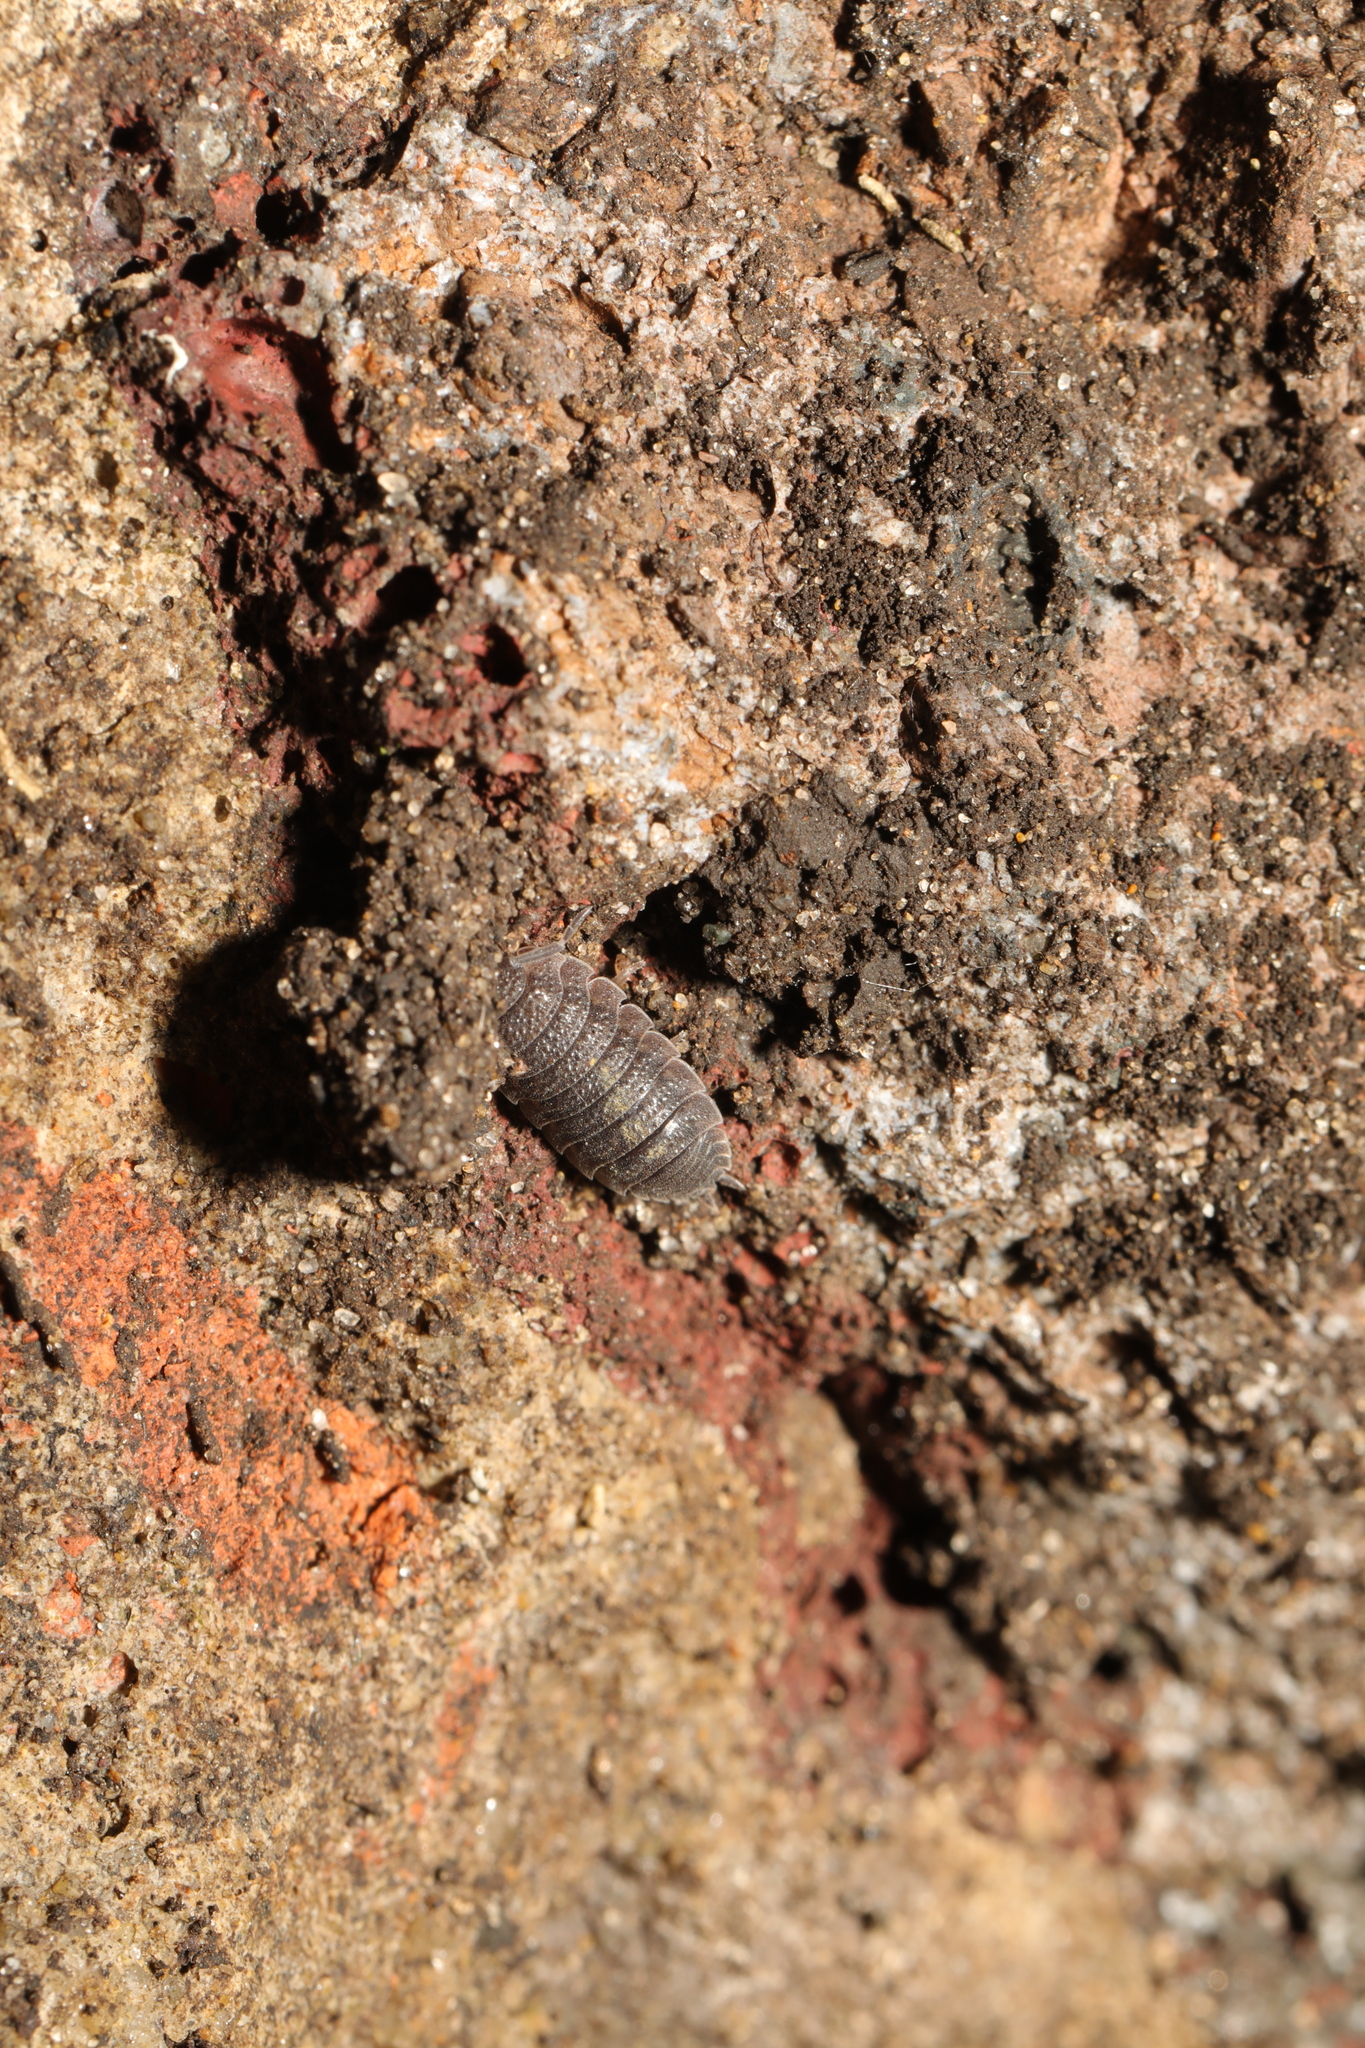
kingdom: Animalia
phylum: Arthropoda
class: Malacostraca
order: Isopoda
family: Porcellionidae
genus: Porcellio
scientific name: Porcellio scaber
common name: Common rough woodlouse
